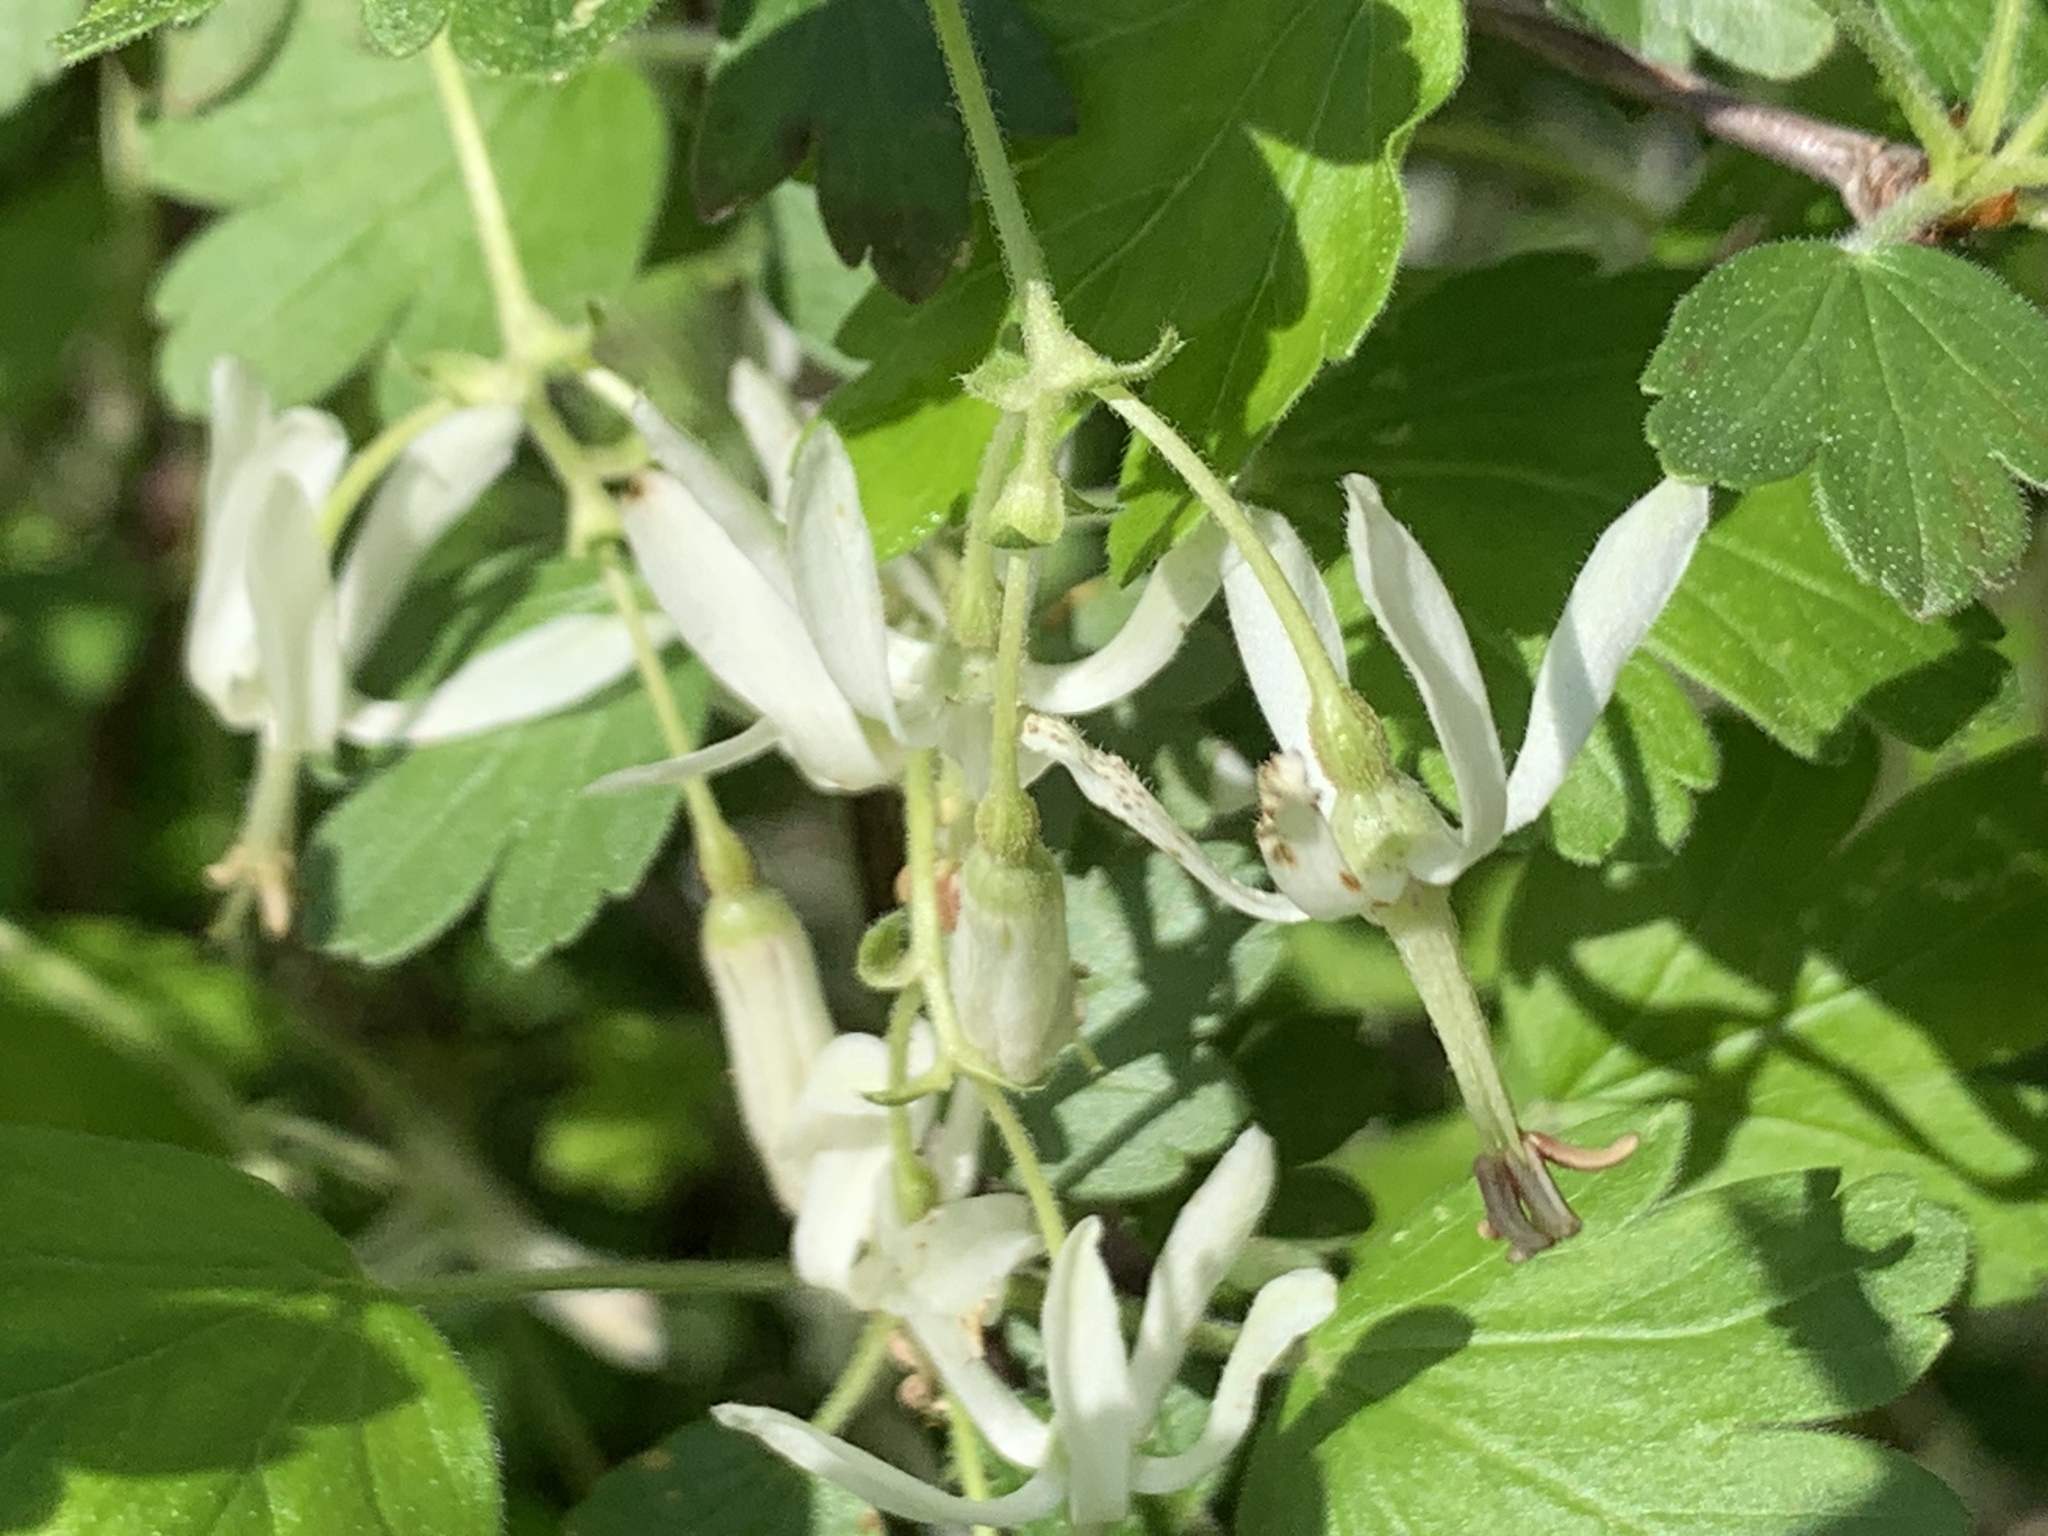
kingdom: Plantae
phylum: Tracheophyta
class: Magnoliopsida
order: Saxifragales
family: Grossulariaceae
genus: Ribes
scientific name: Ribes curvatum
